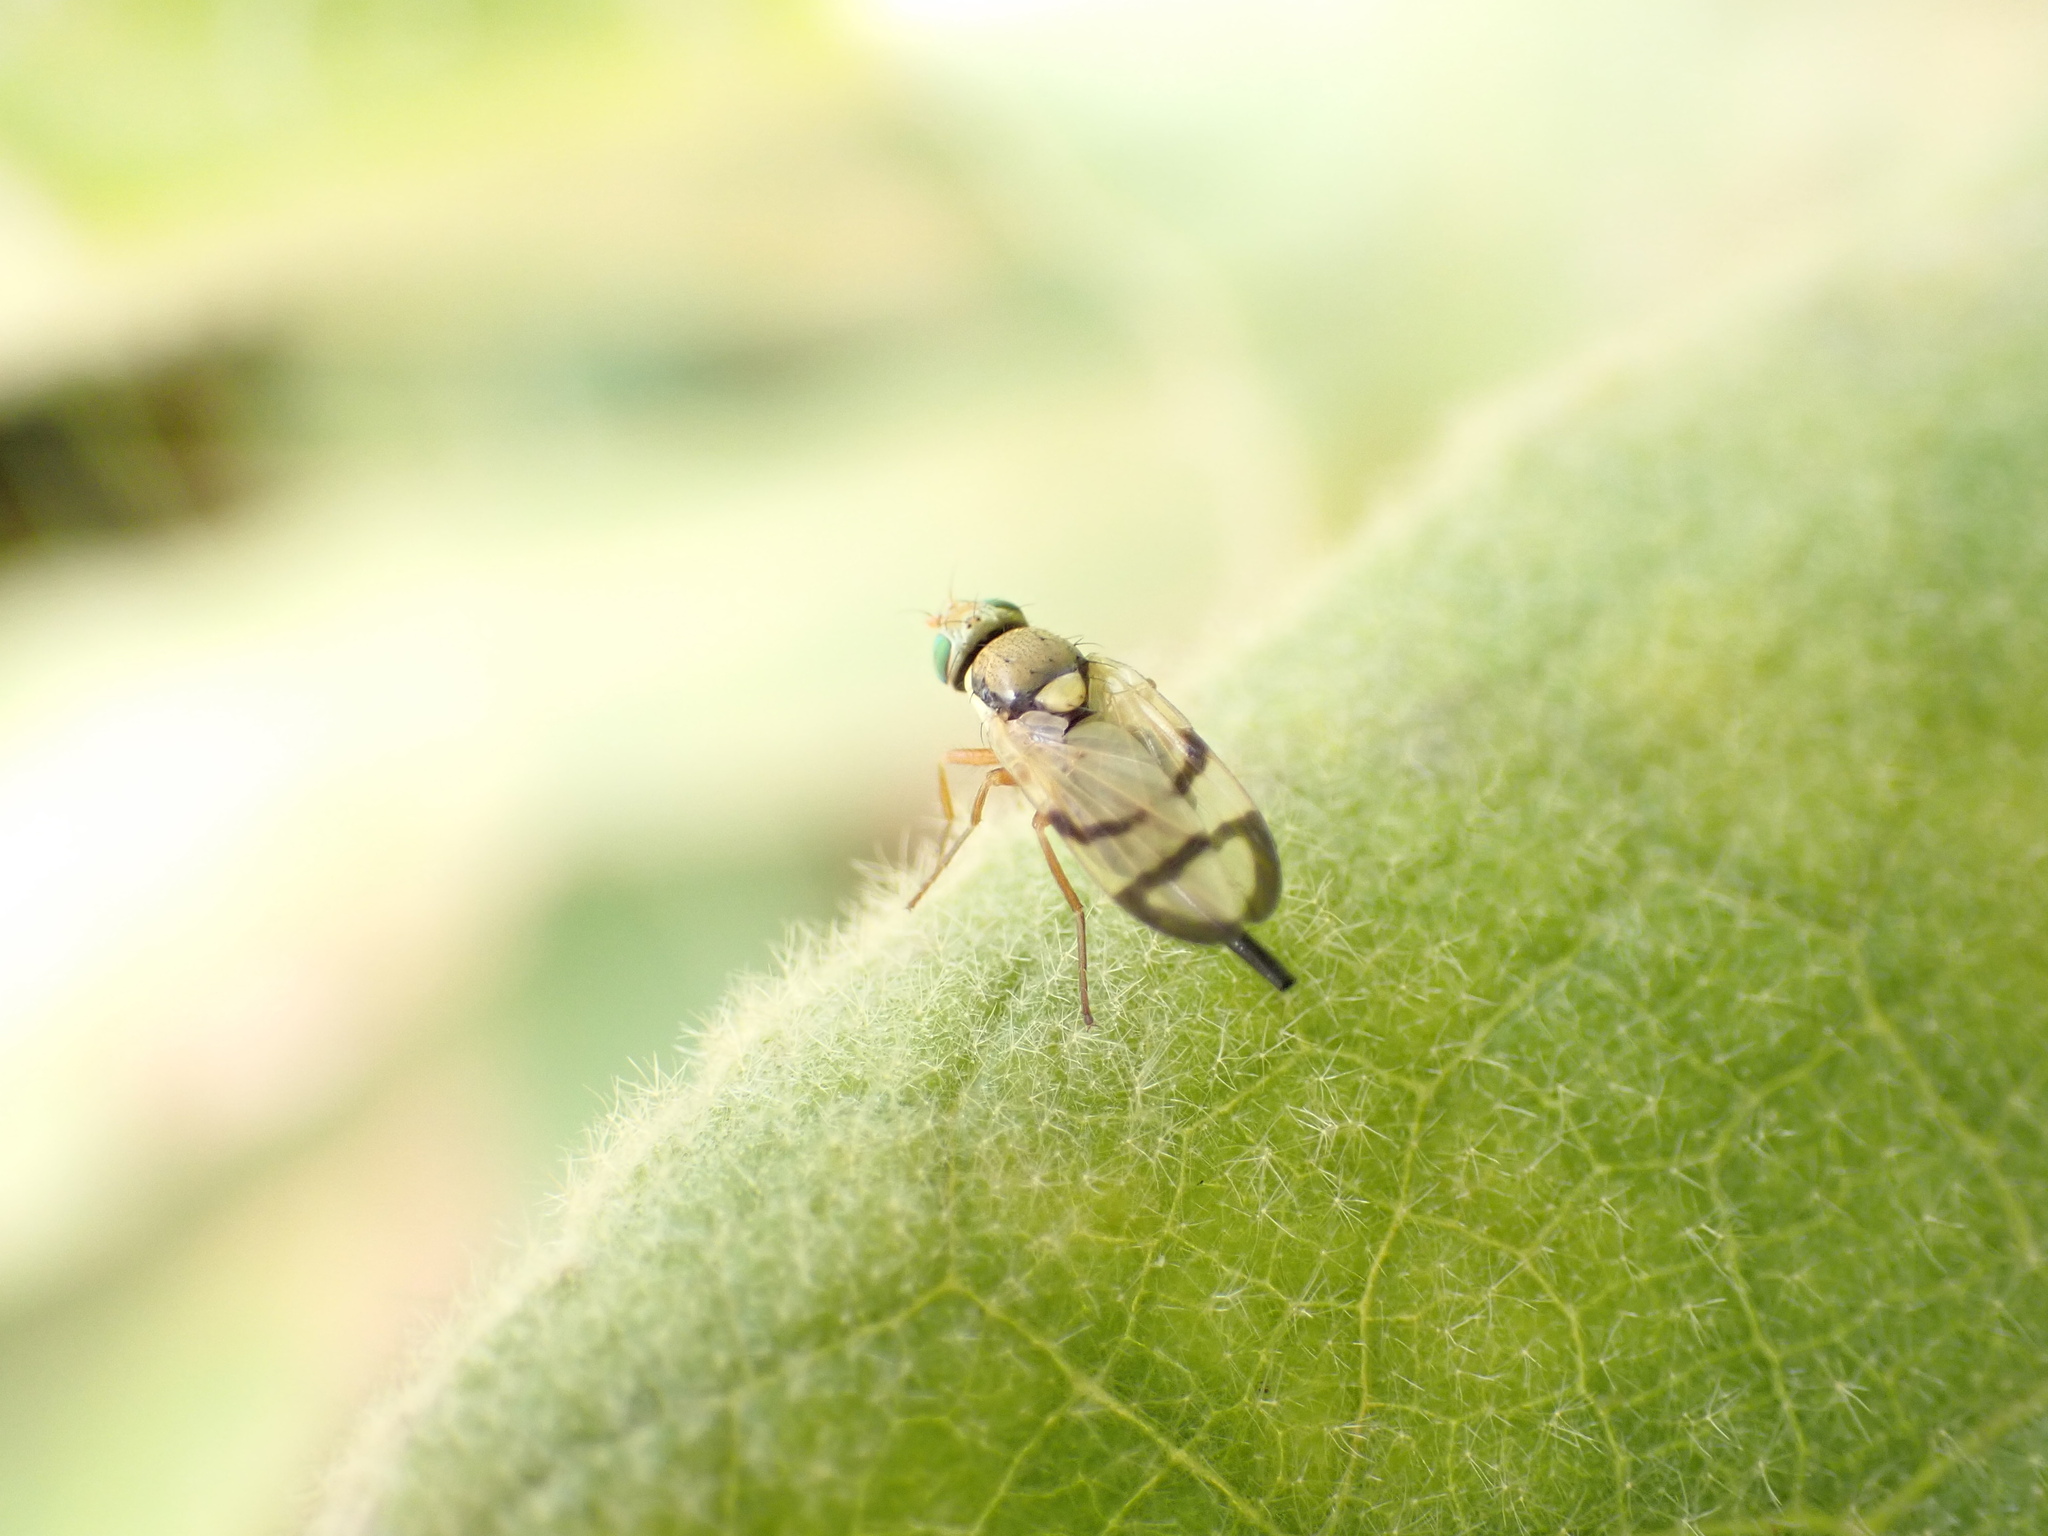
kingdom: Animalia
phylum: Arthropoda
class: Insecta
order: Diptera
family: Tephritidae
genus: Urophora
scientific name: Urophora stylata
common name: Fruit fly
